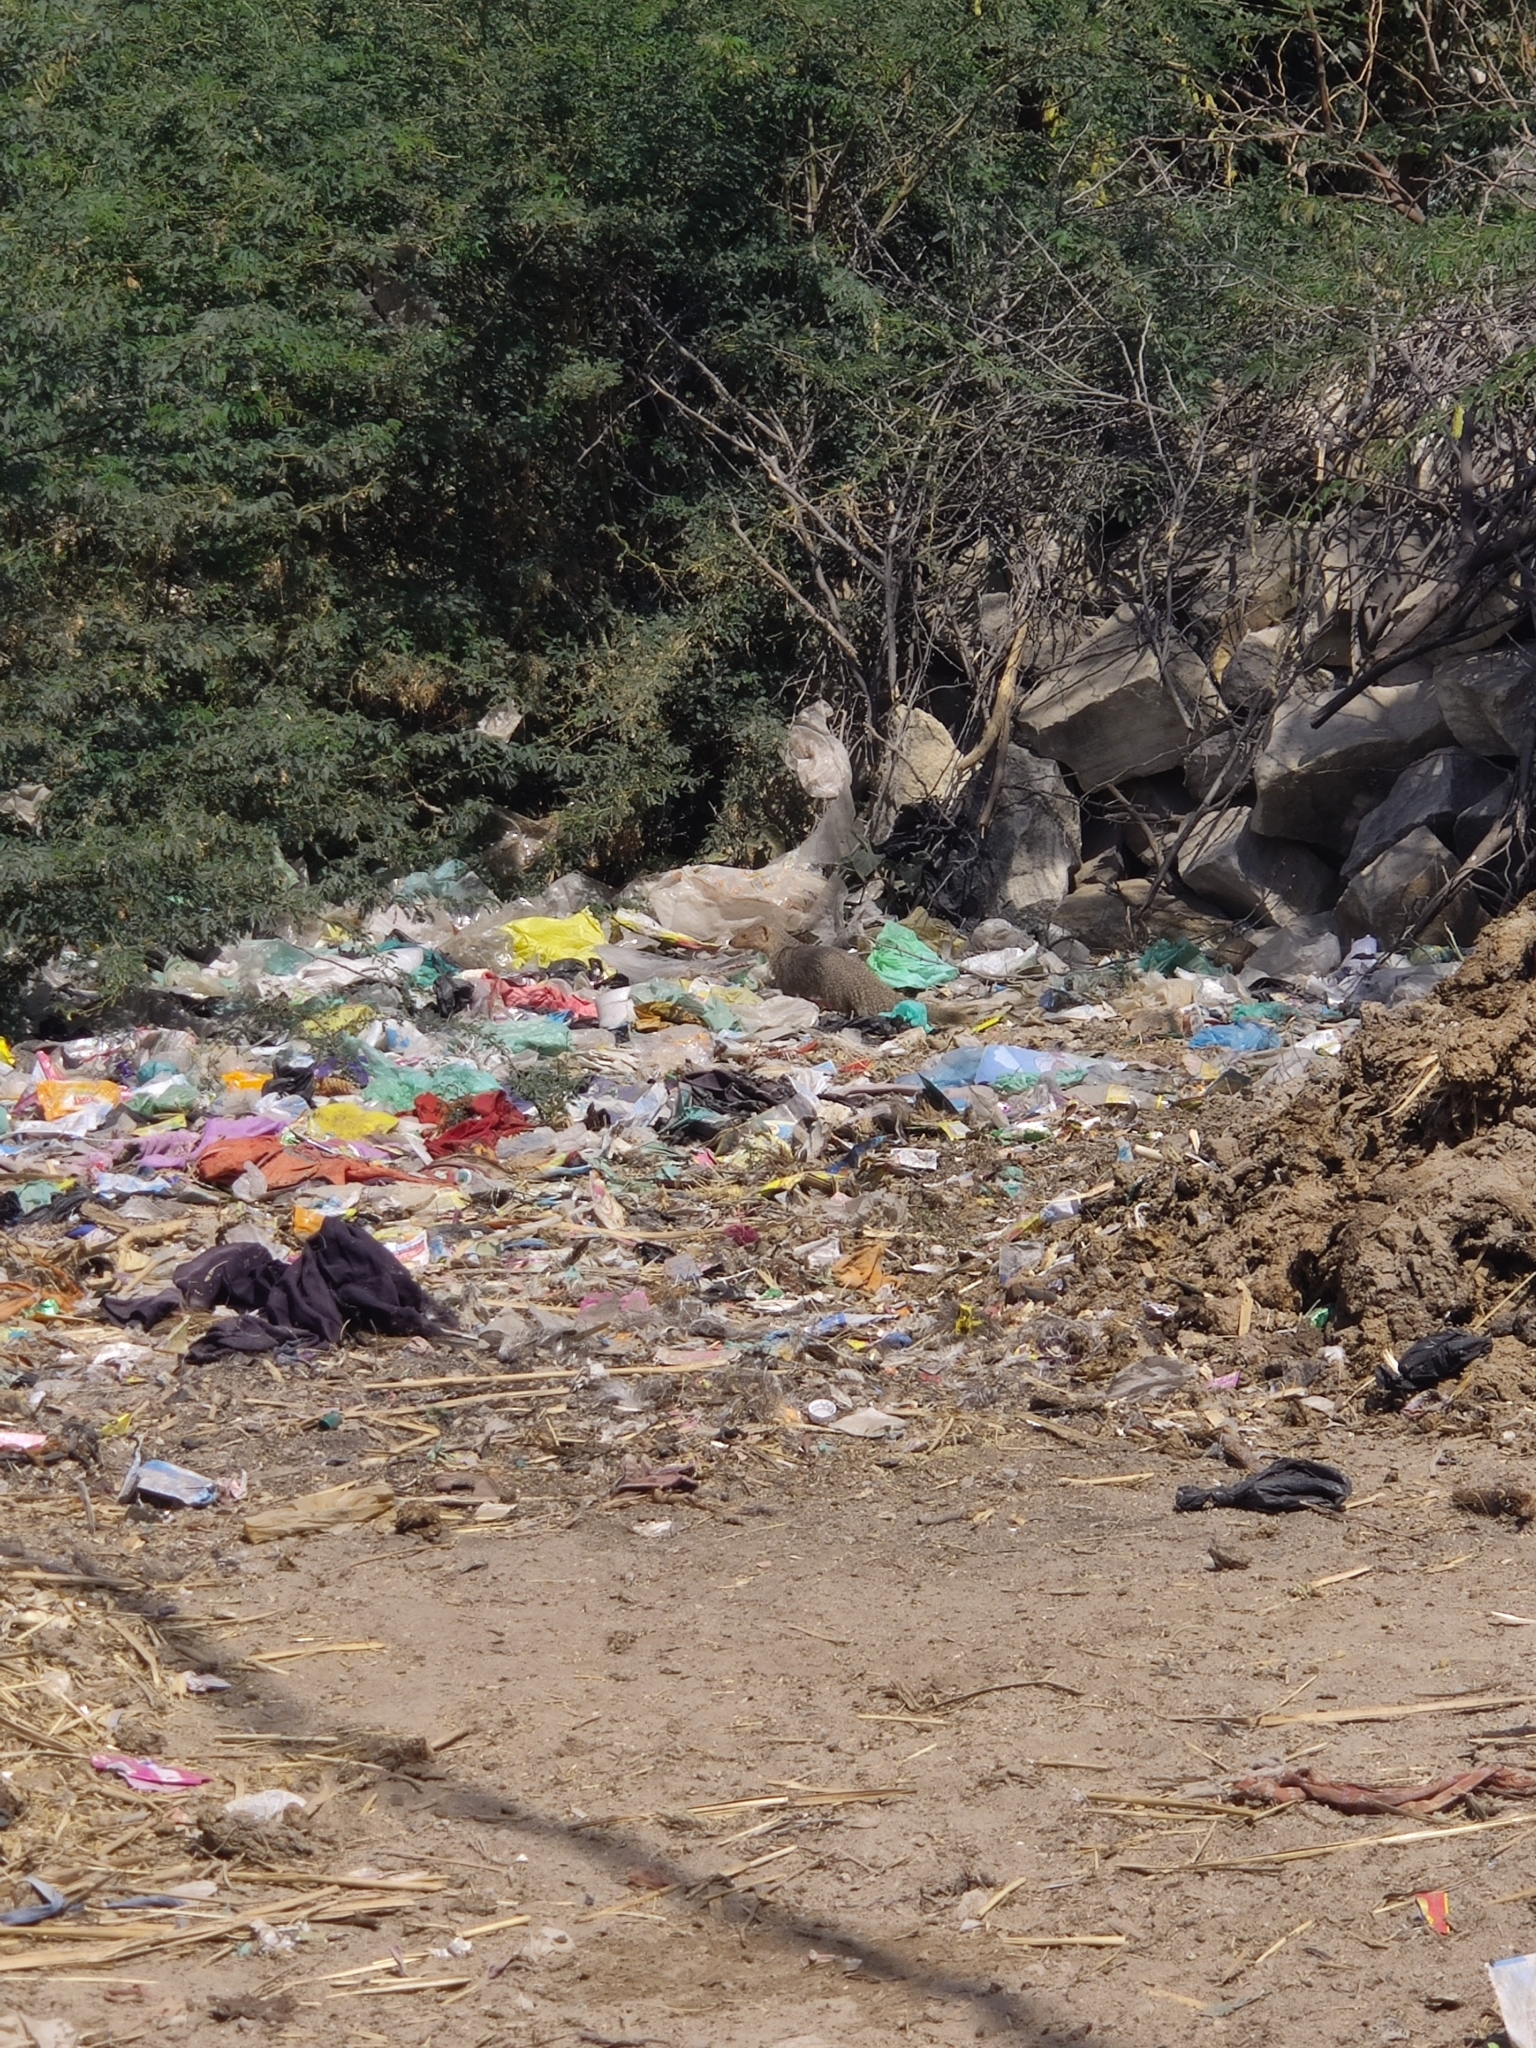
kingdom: Animalia
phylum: Chordata
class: Mammalia
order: Carnivora
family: Herpestidae
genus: Herpestes
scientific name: Herpestes edwardsi
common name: Indian gray mongoose
